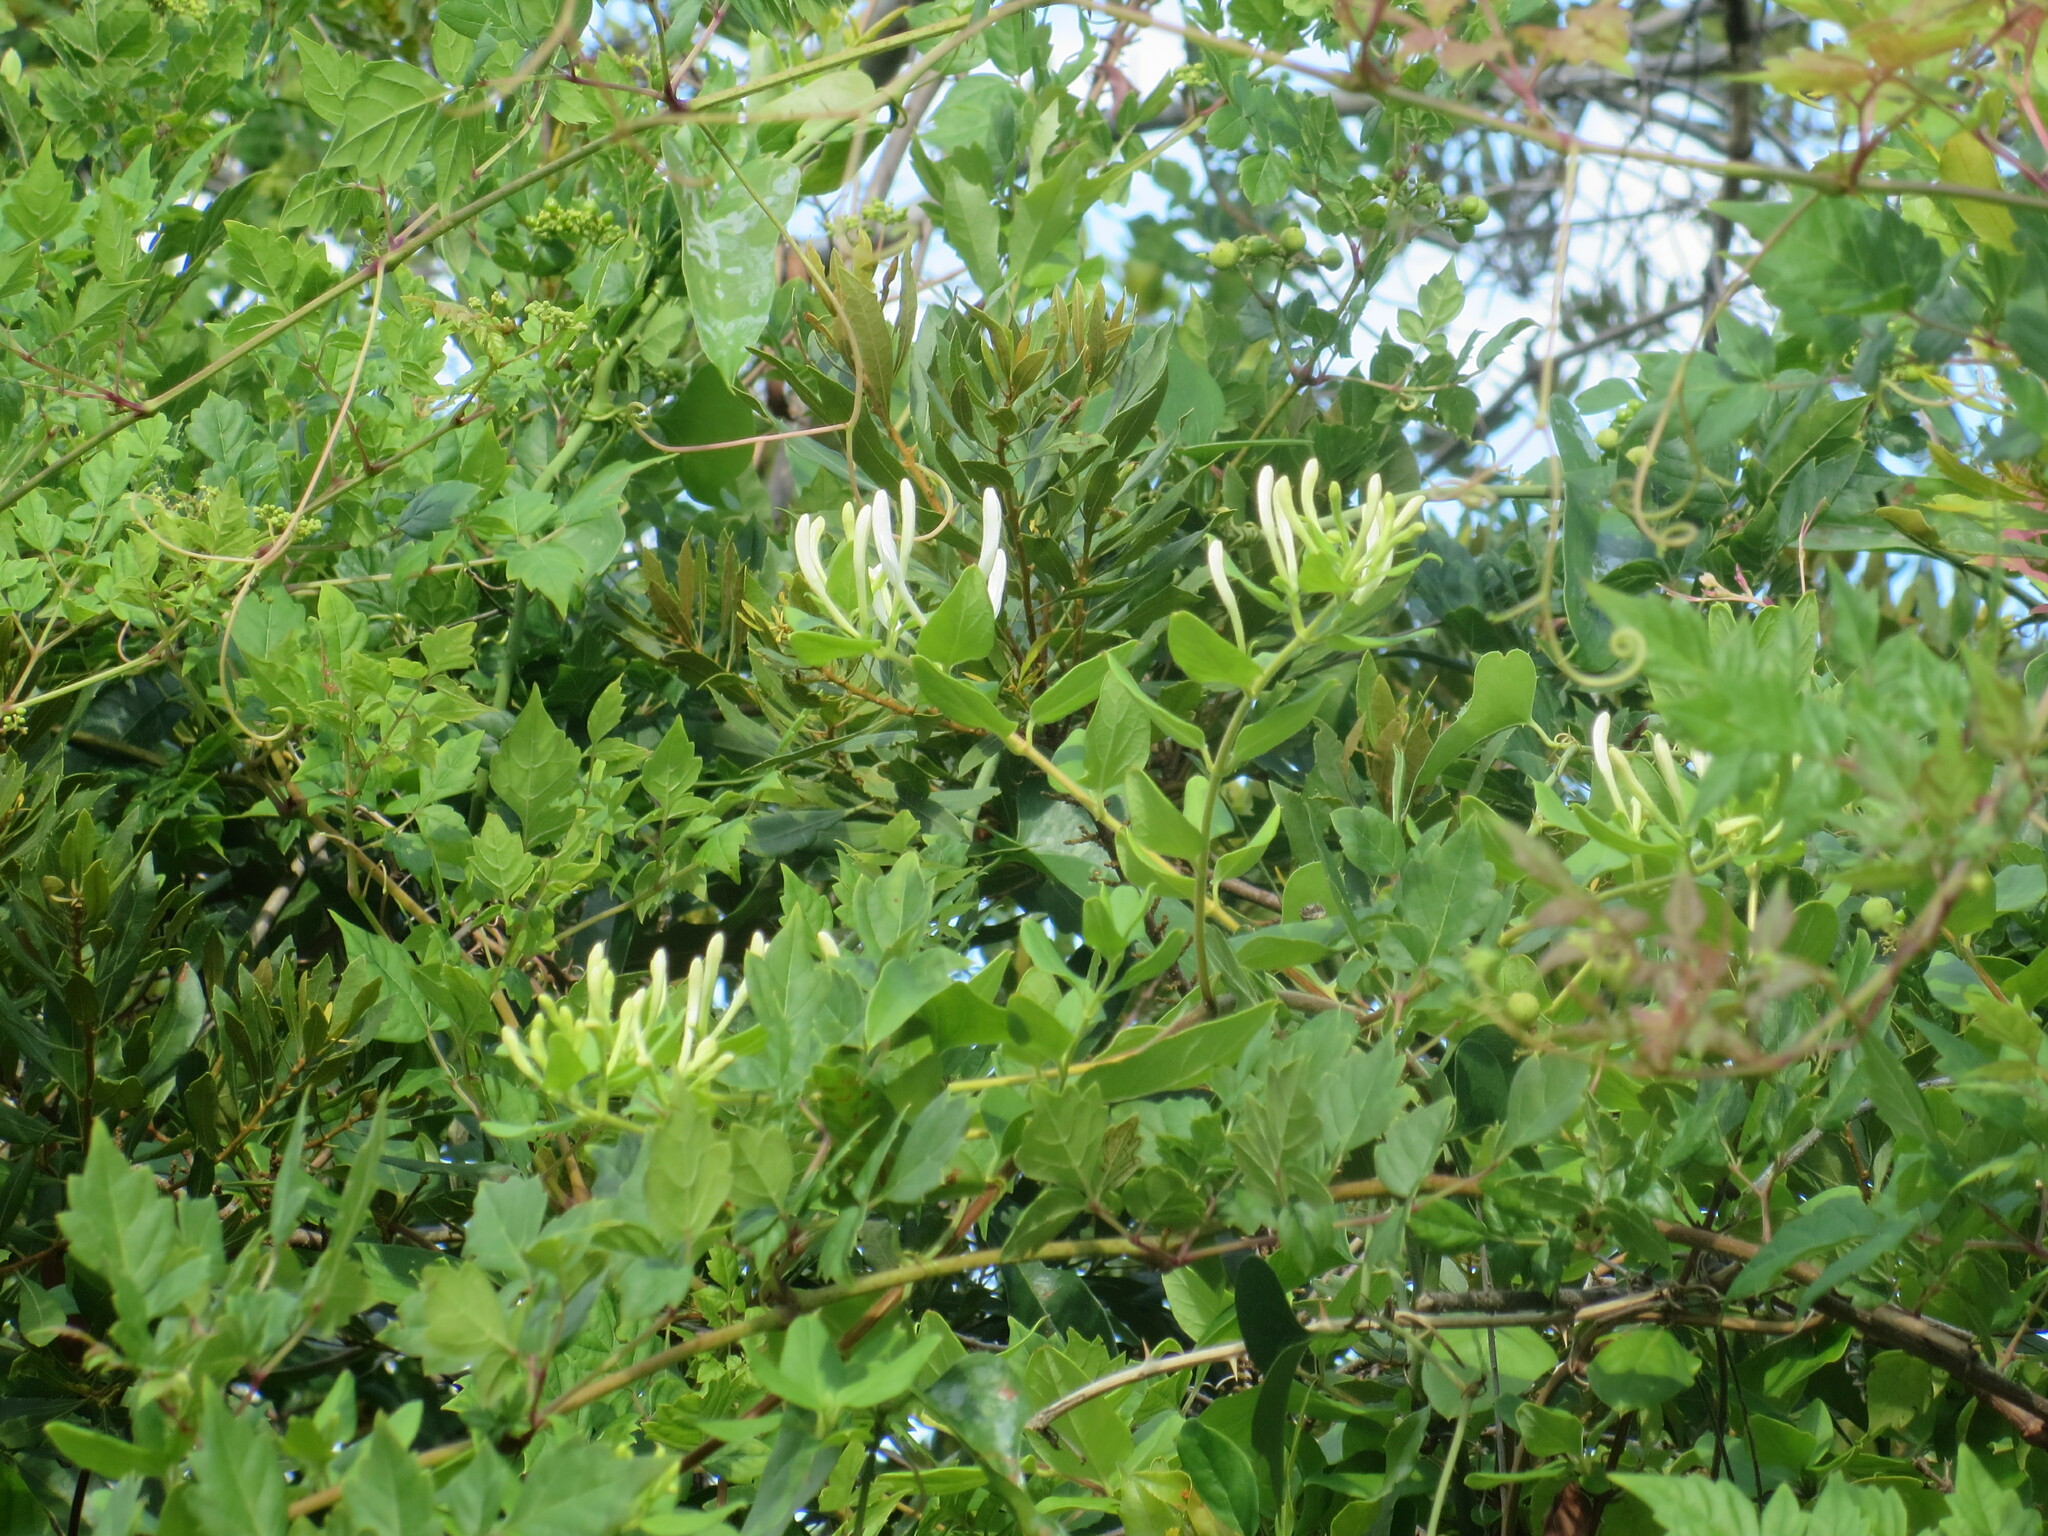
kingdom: Plantae
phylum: Tracheophyta
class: Magnoliopsida
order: Dipsacales
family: Caprifoliaceae
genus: Lonicera
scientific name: Lonicera japonica
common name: Japanese honeysuckle
